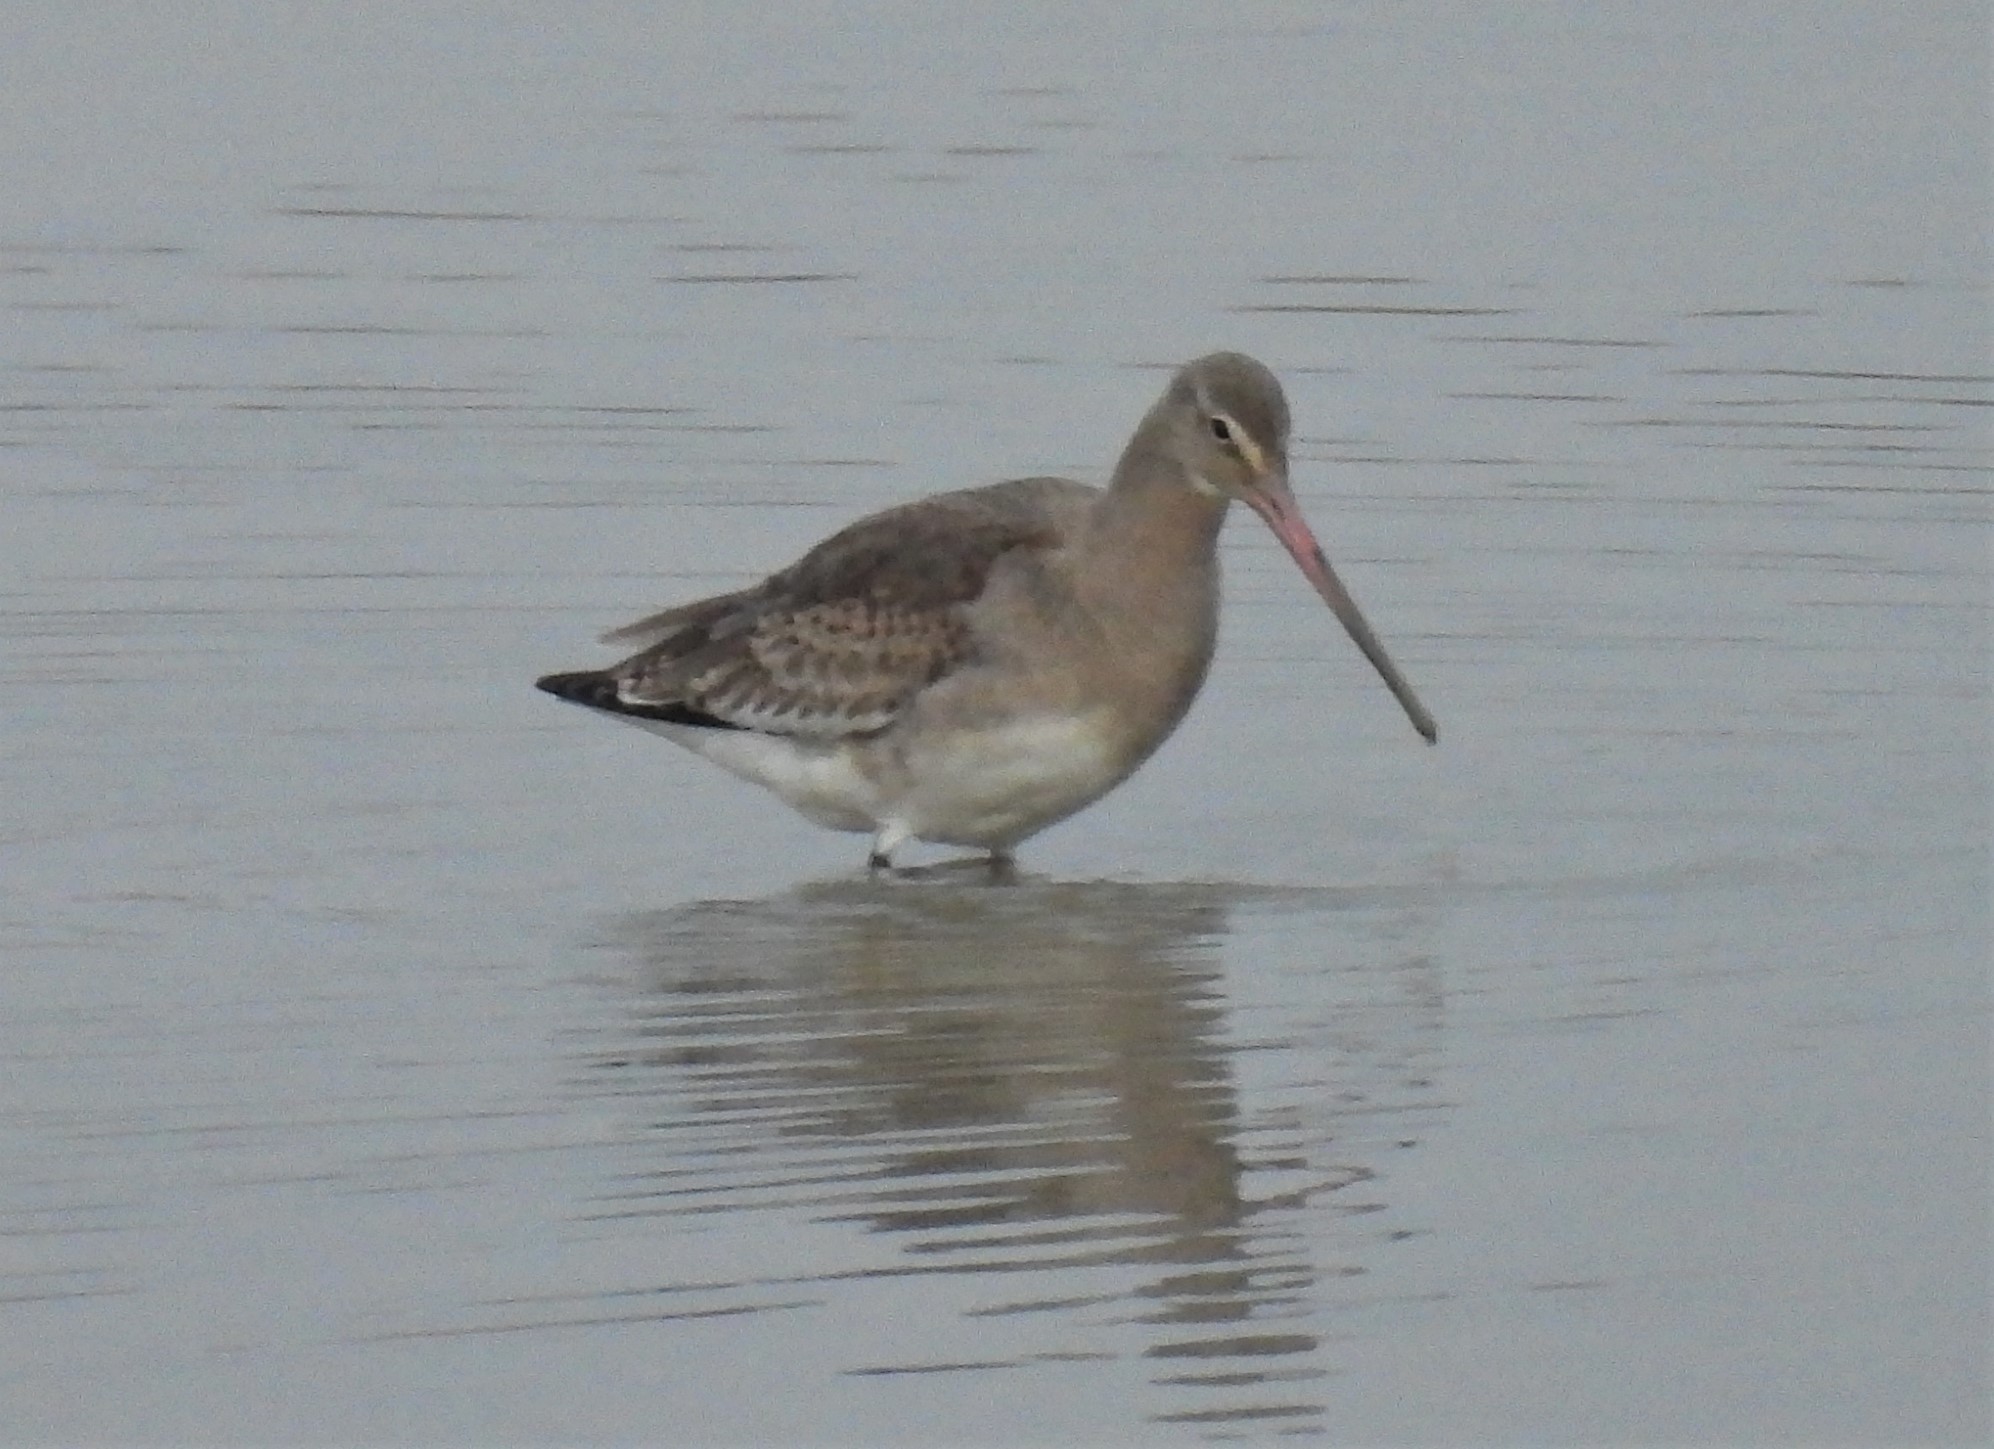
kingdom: Animalia
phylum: Chordata
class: Aves
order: Charadriiformes
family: Scolopacidae
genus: Limosa
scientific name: Limosa limosa
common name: Black-tailed godwit
